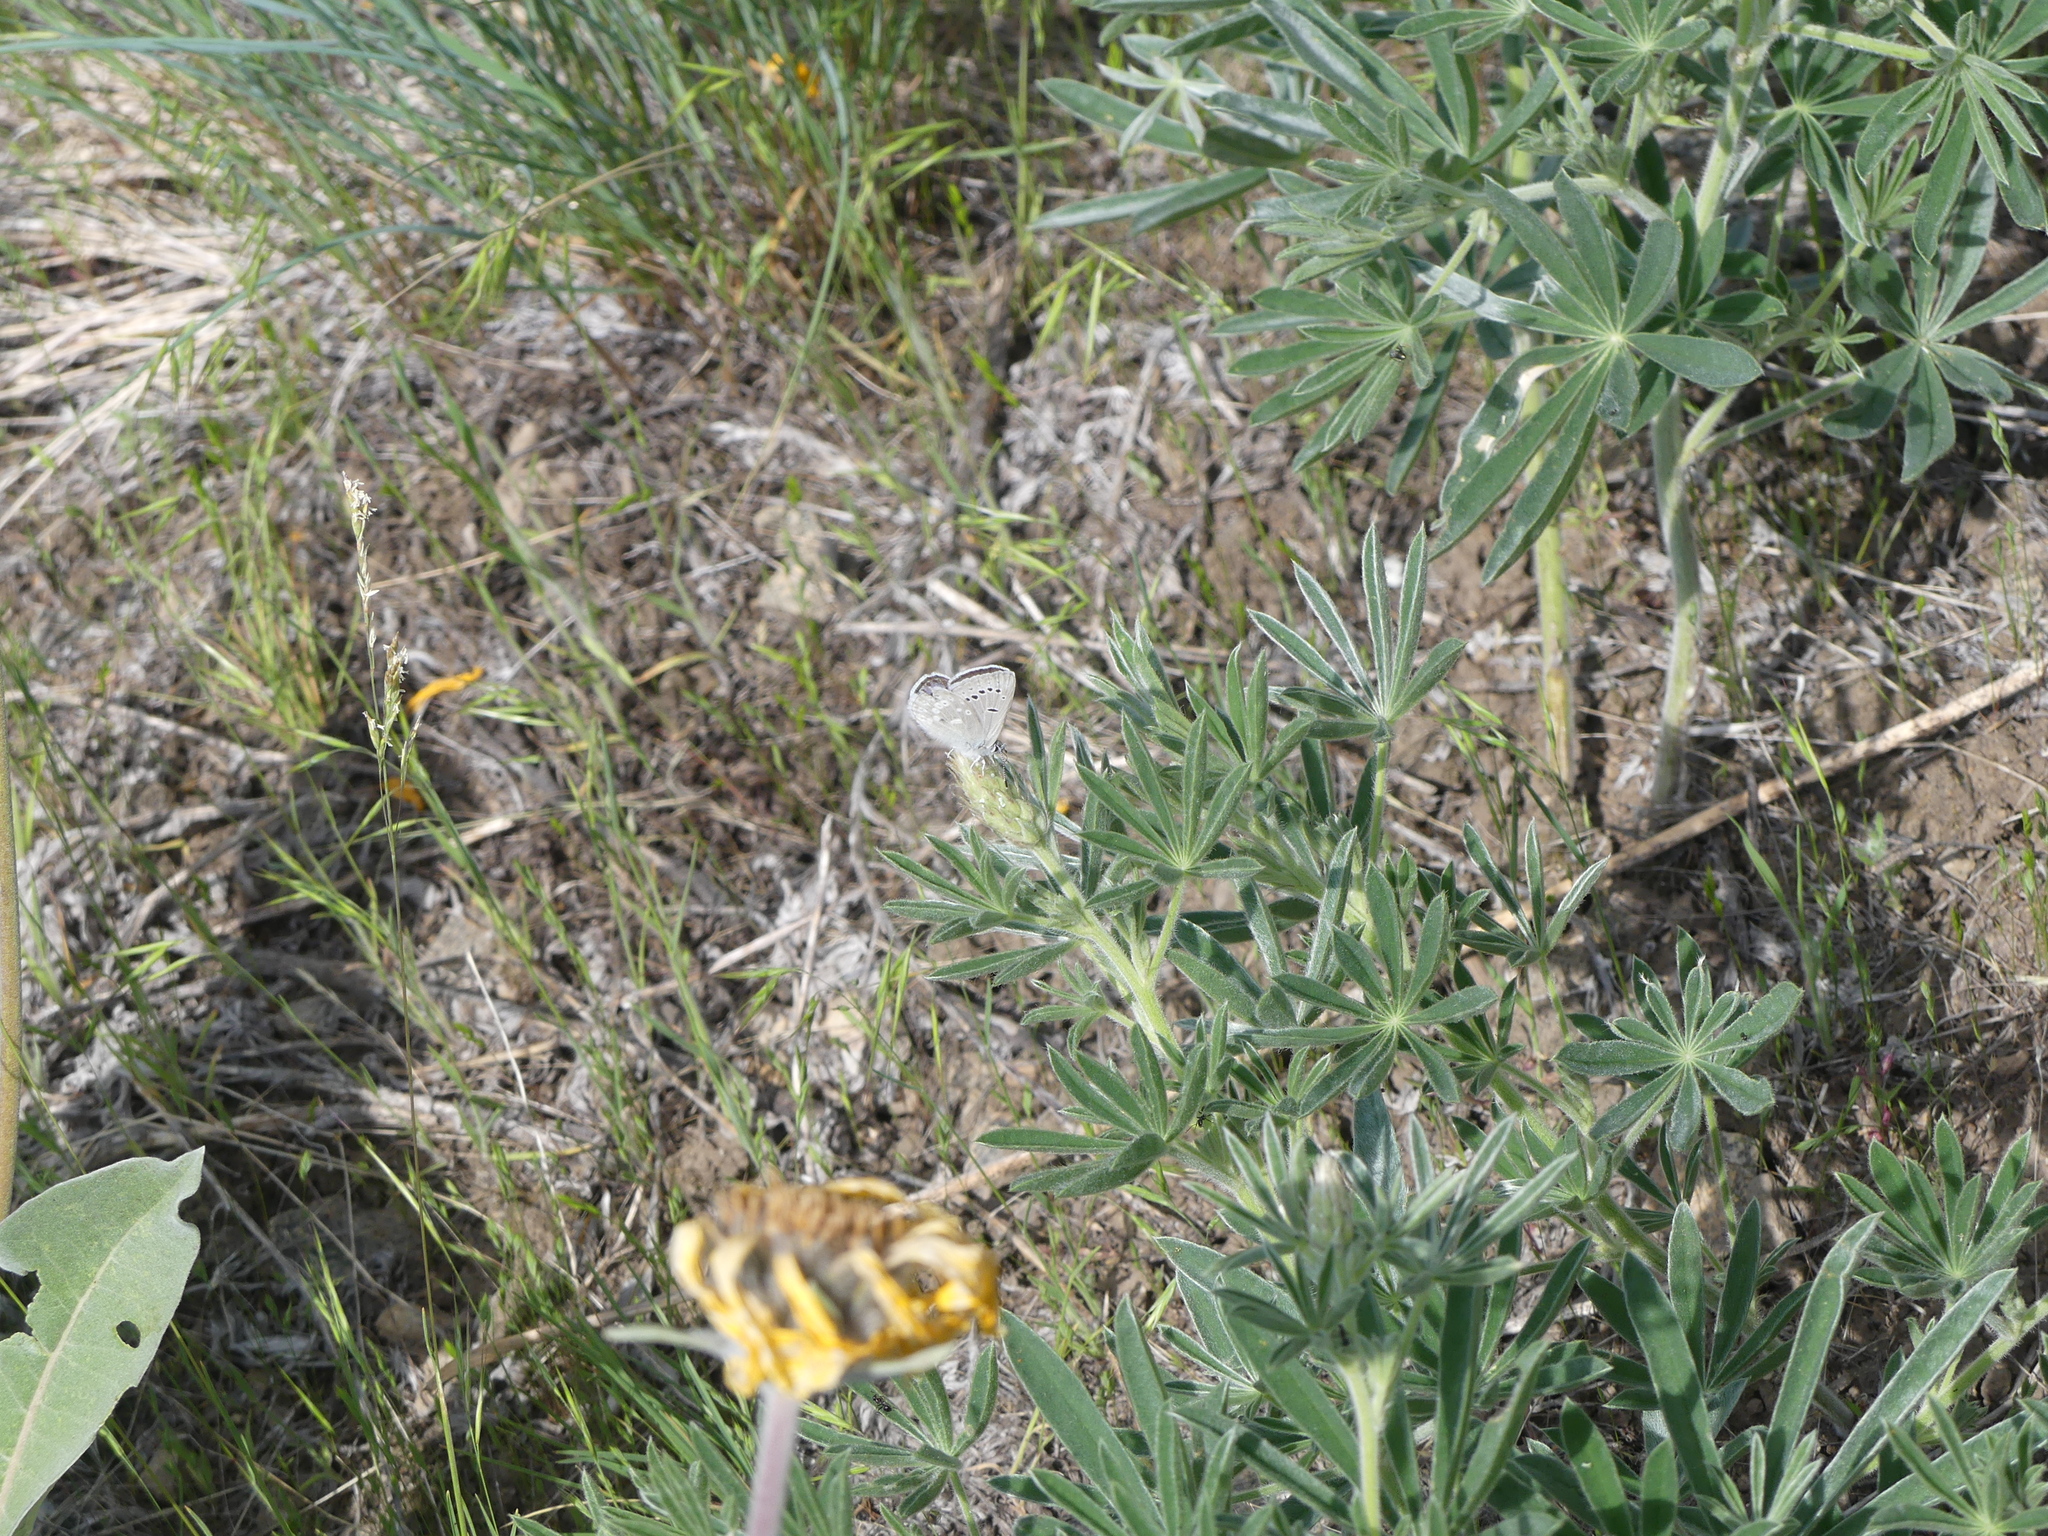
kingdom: Animalia
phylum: Arthropoda
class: Insecta
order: Lepidoptera
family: Lycaenidae
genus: Icaricia
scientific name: Icaricia icarioides
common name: Boisduval's blue
